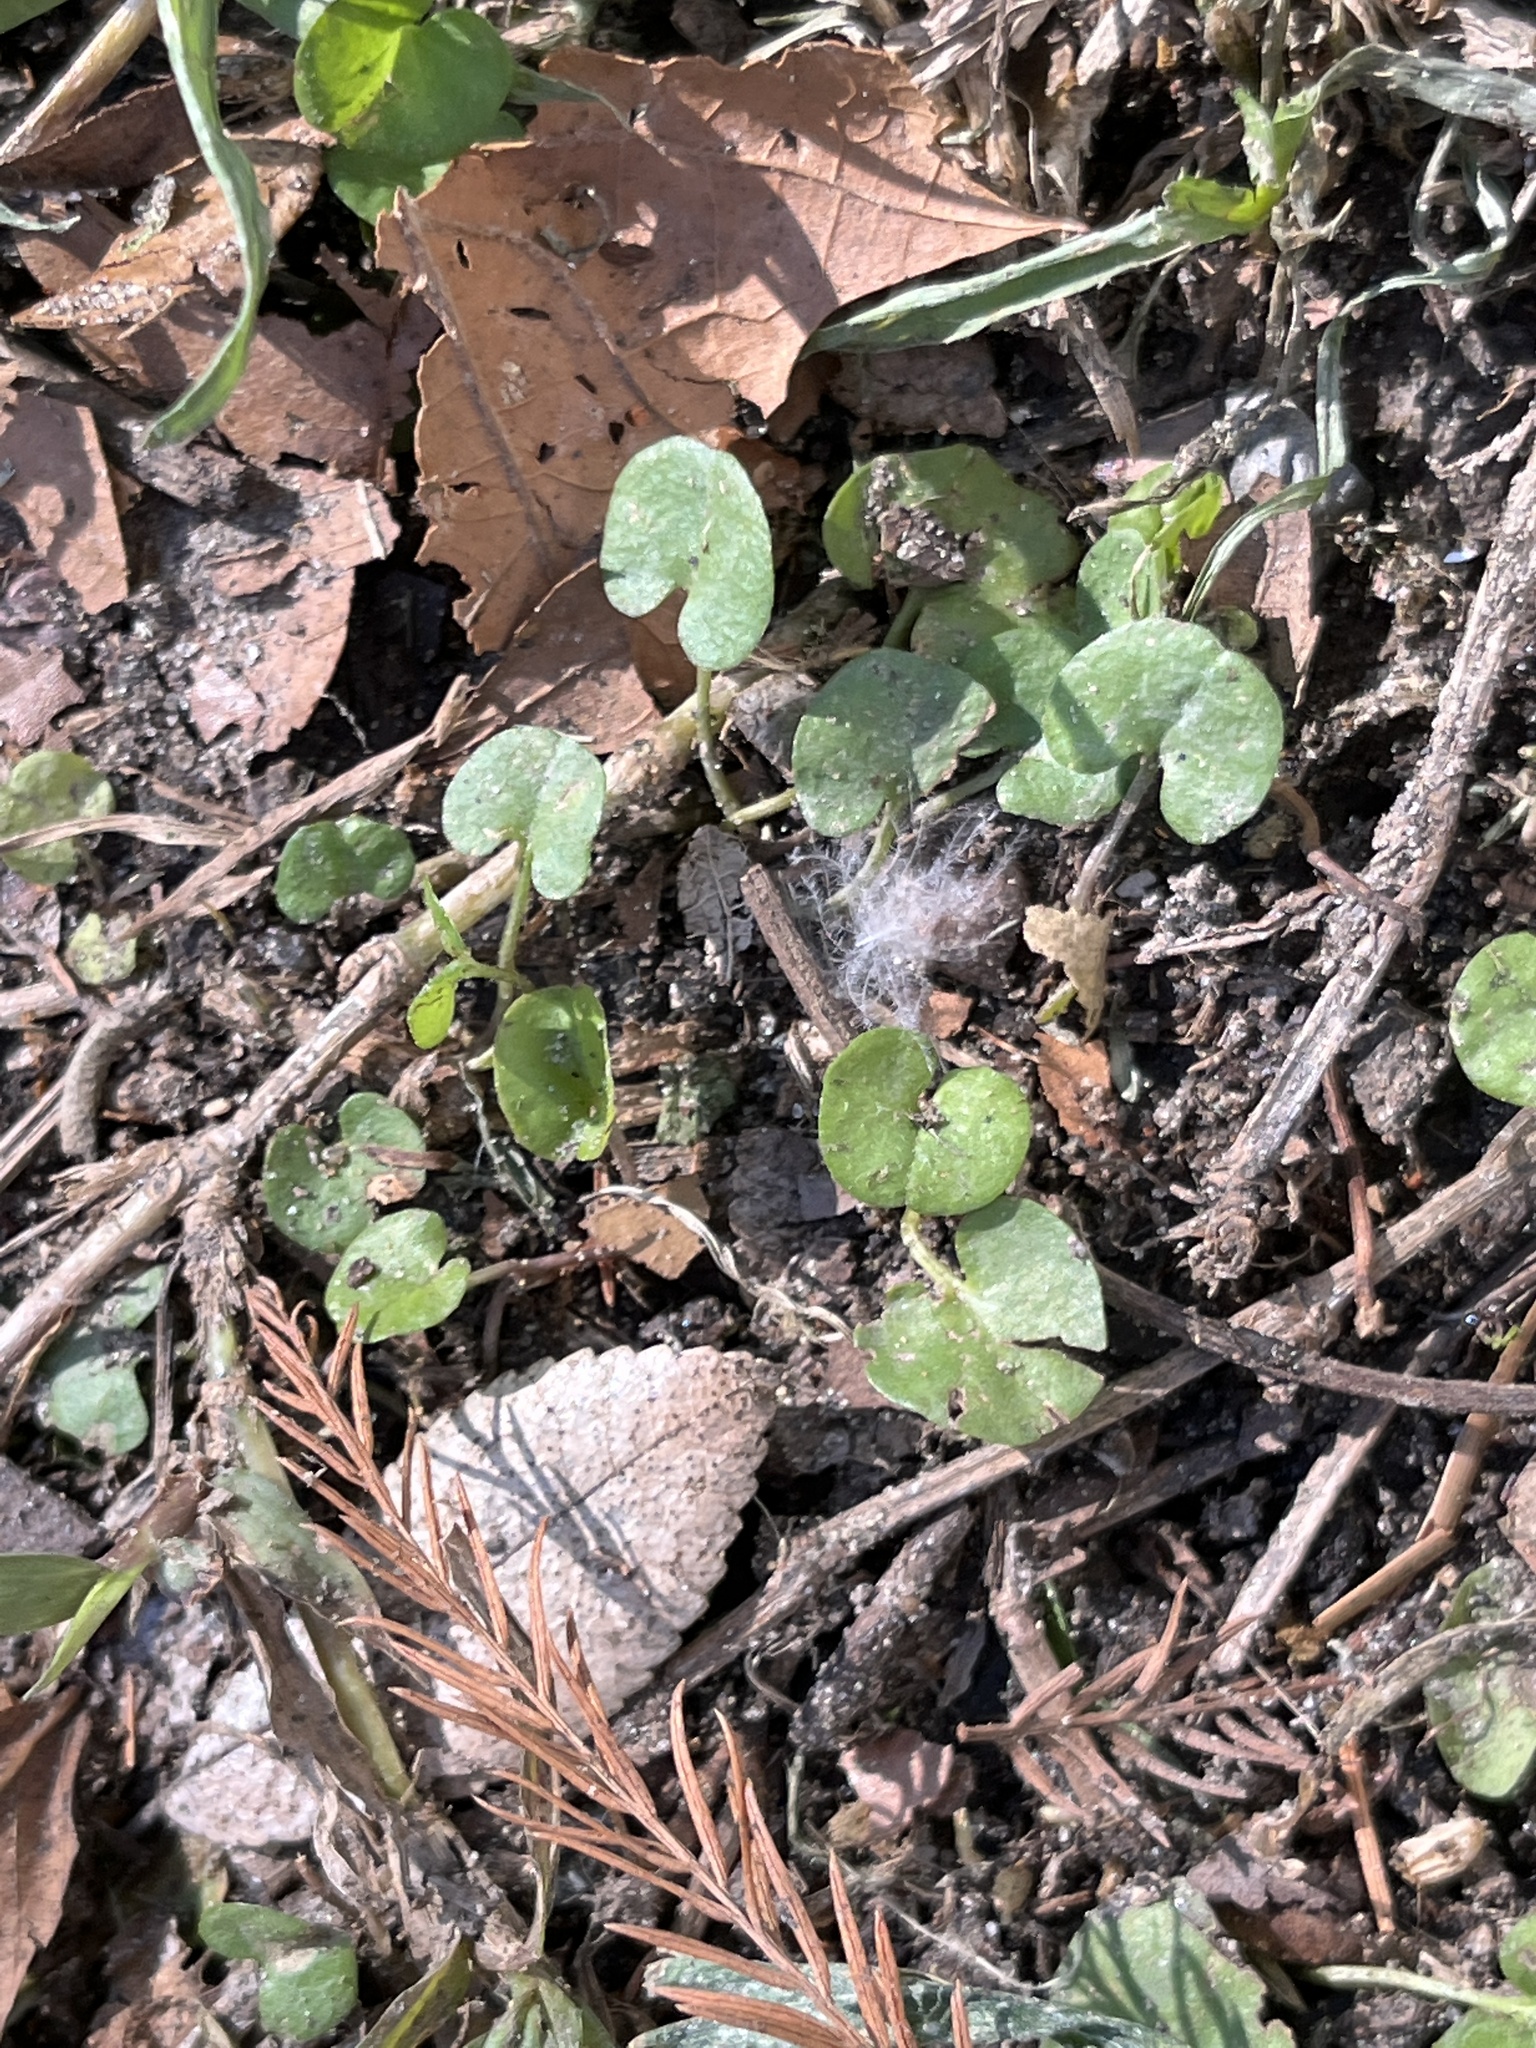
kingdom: Plantae
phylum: Tracheophyta
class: Magnoliopsida
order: Solanales
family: Convolvulaceae
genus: Dichondra
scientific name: Dichondra carolinensis
